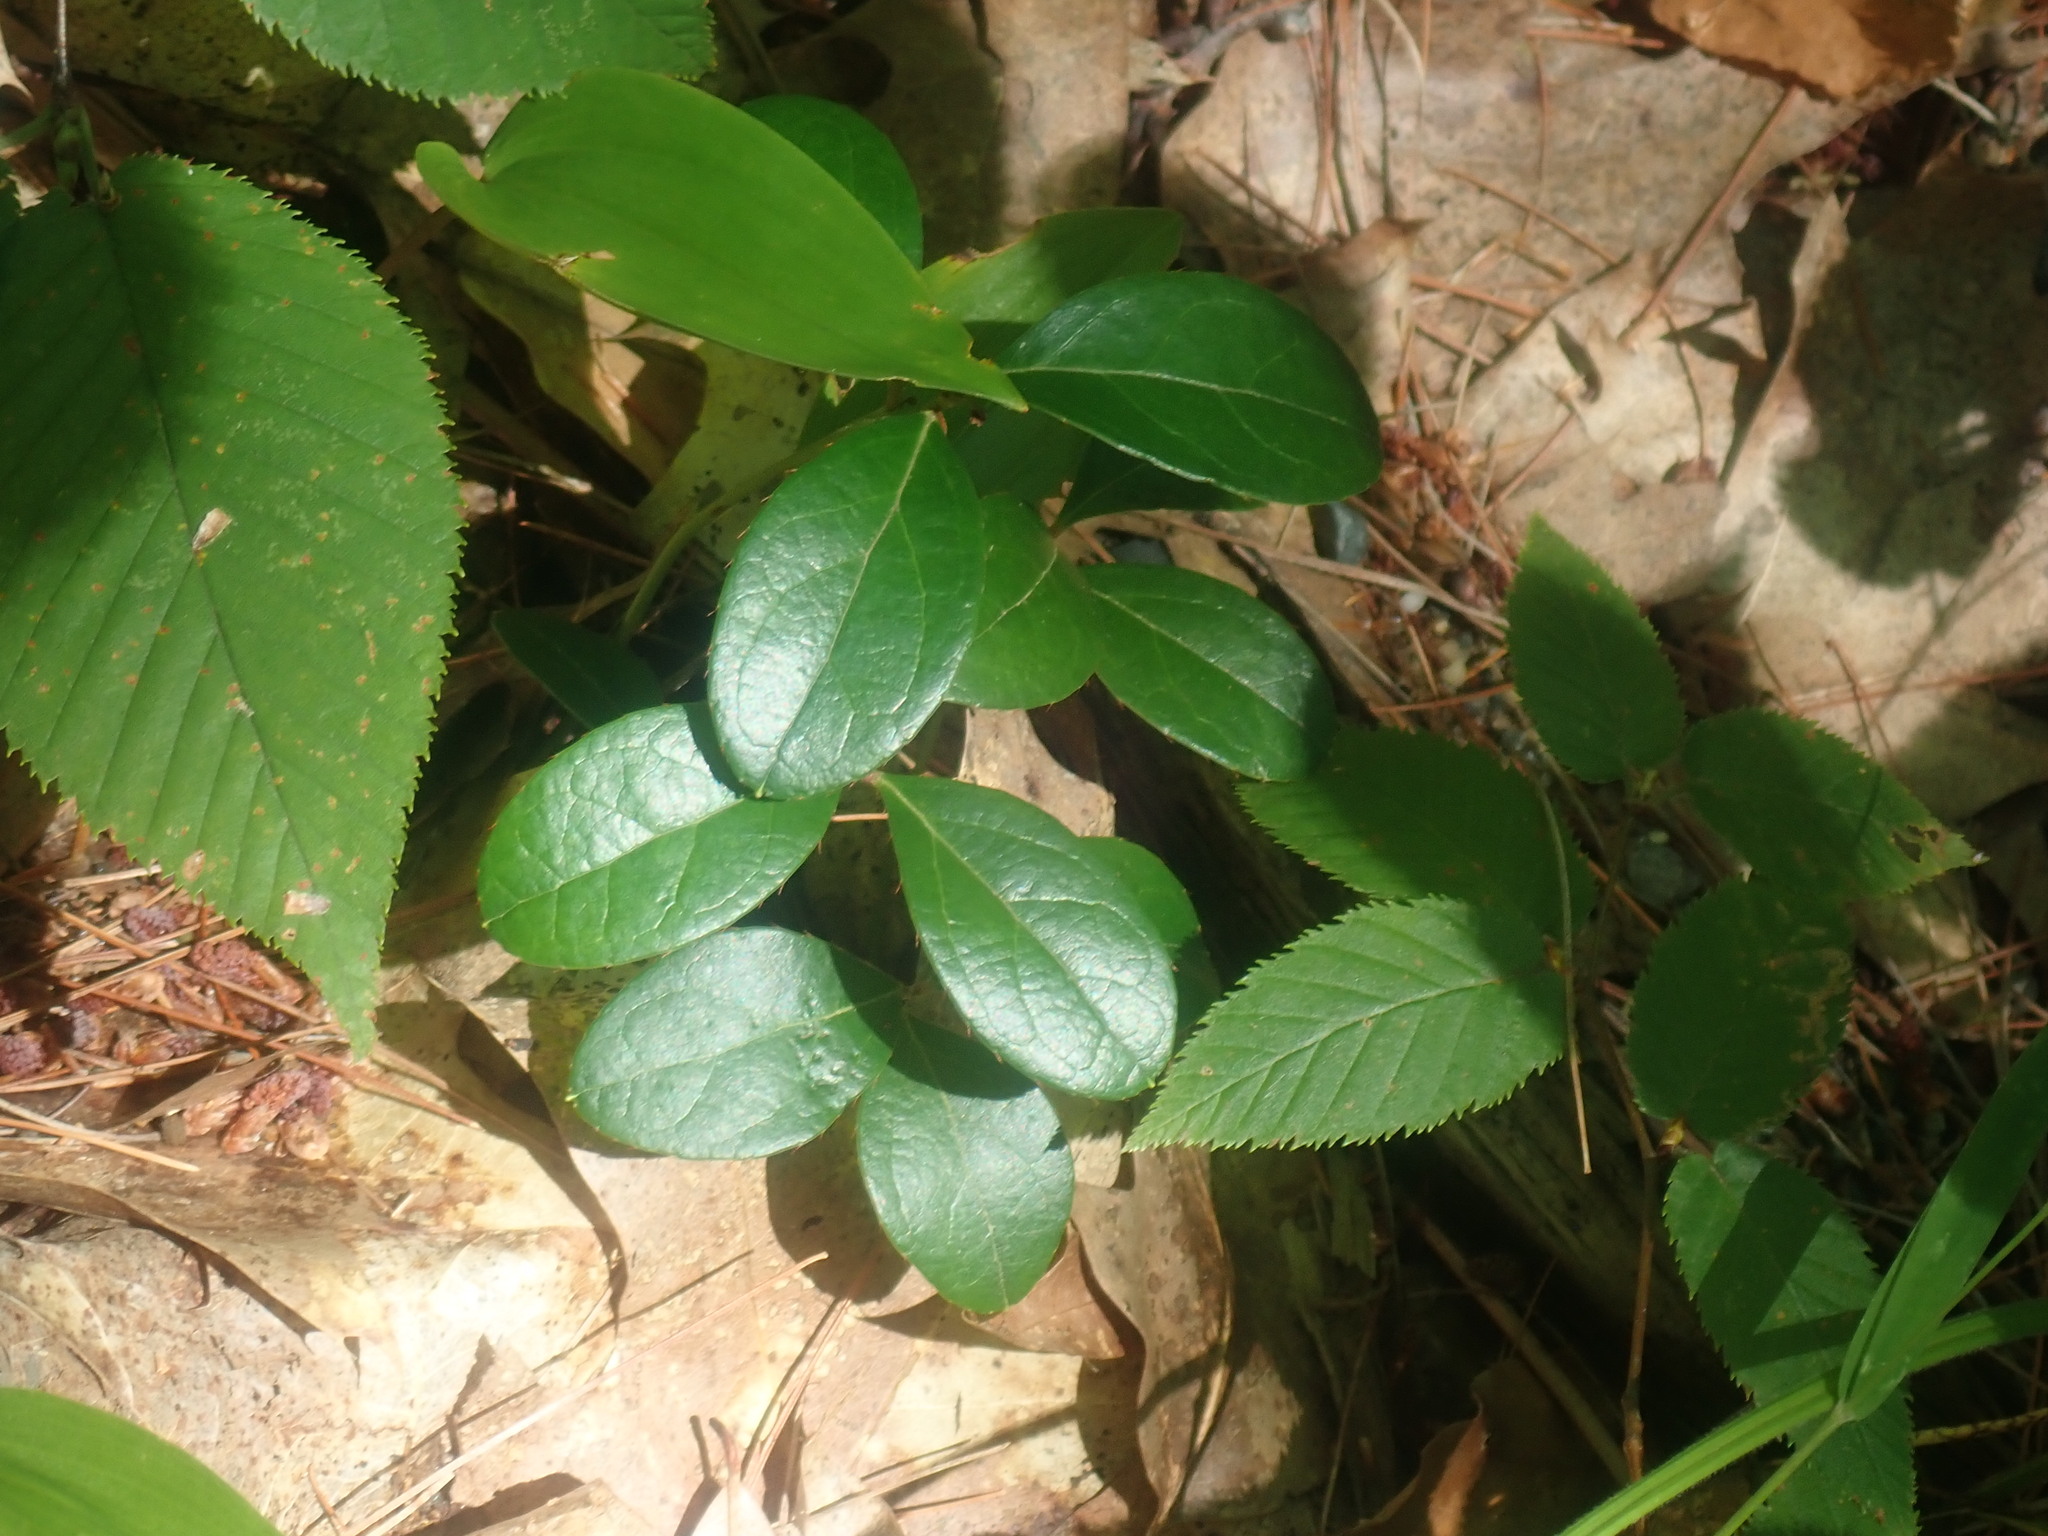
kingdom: Plantae
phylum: Tracheophyta
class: Magnoliopsida
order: Ericales
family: Ericaceae
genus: Gaultheria
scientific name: Gaultheria procumbens
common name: Checkerberry
